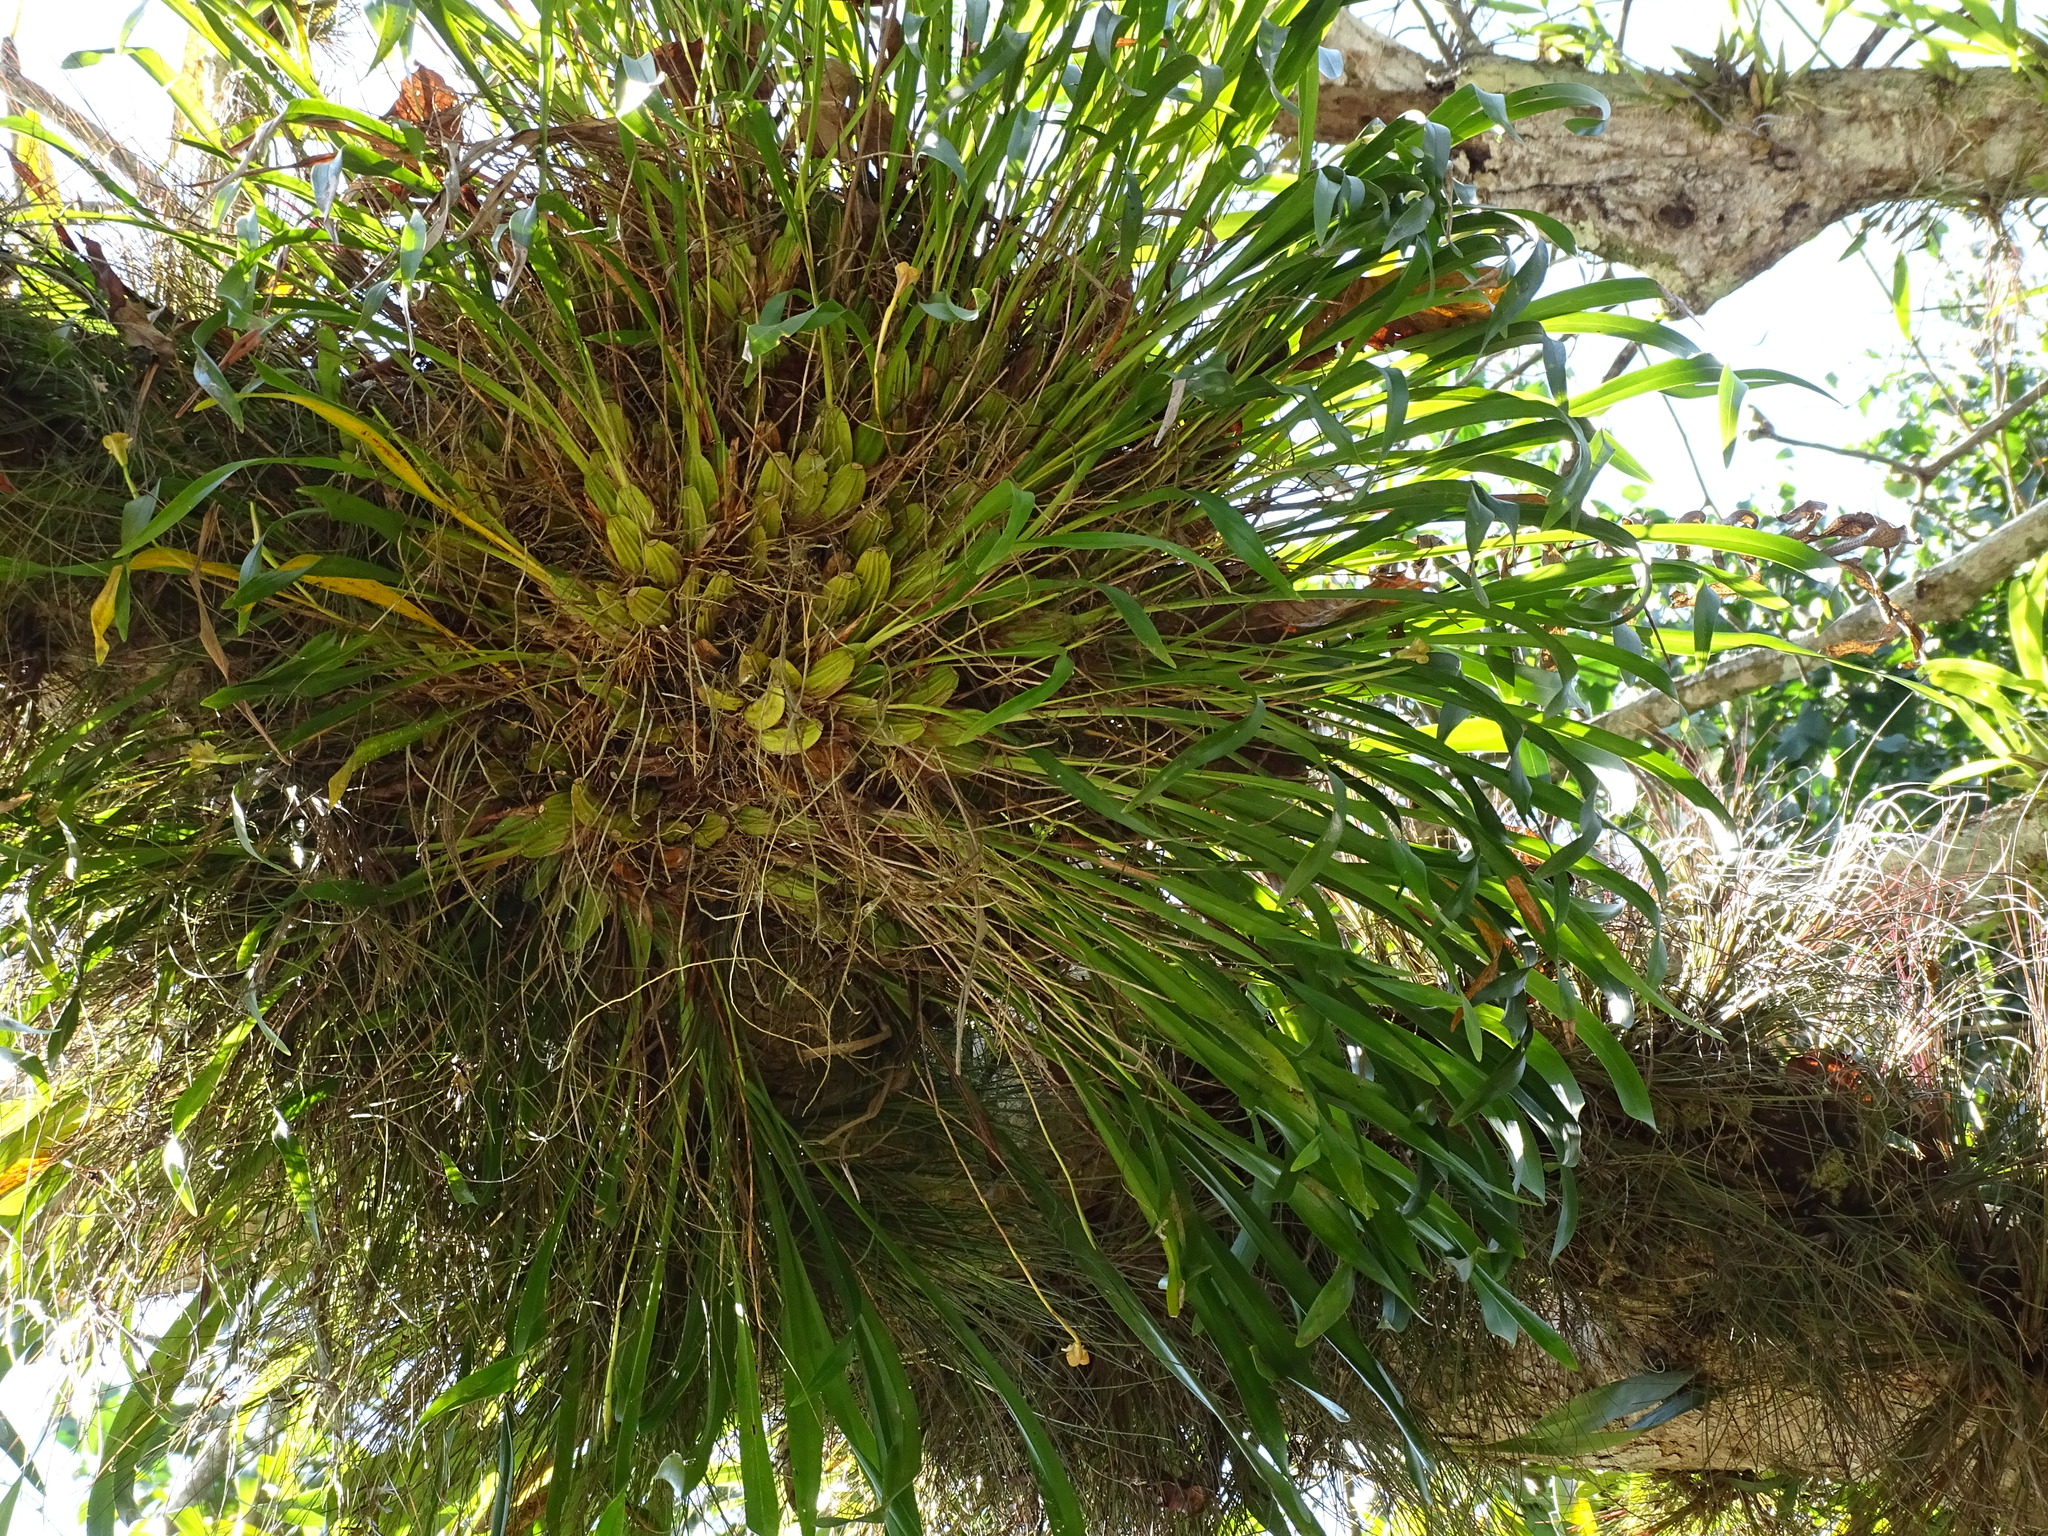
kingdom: Plantae
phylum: Tracheophyta
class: Liliopsida
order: Asparagales
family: Orchidaceae
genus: Maxillaria
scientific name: Maxillaria egertoniana
